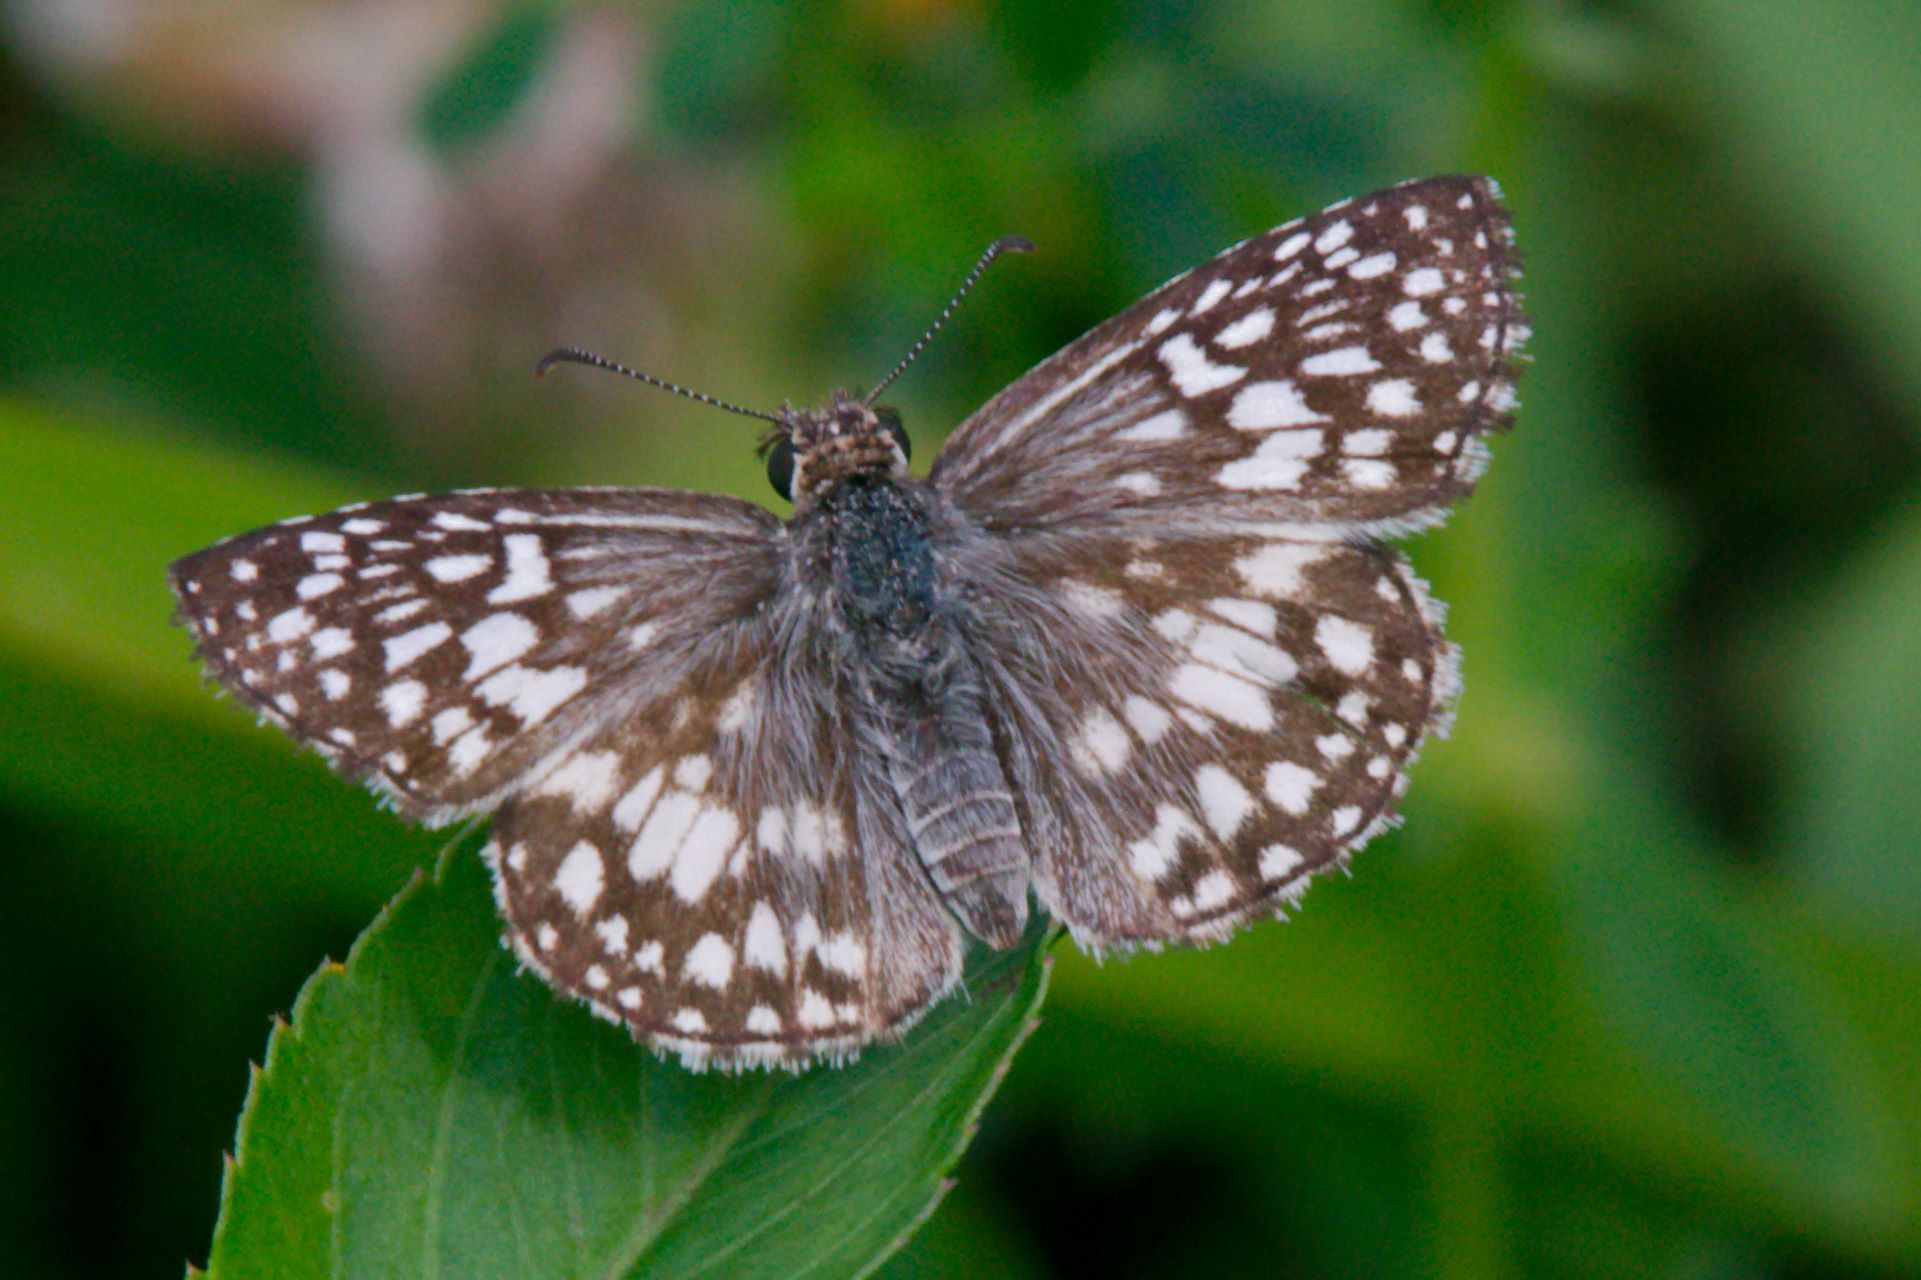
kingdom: Animalia
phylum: Arthropoda
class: Insecta
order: Lepidoptera
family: Hesperiidae
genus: Pyrgus
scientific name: Pyrgus oileus
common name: Tropical checkered-skipper
